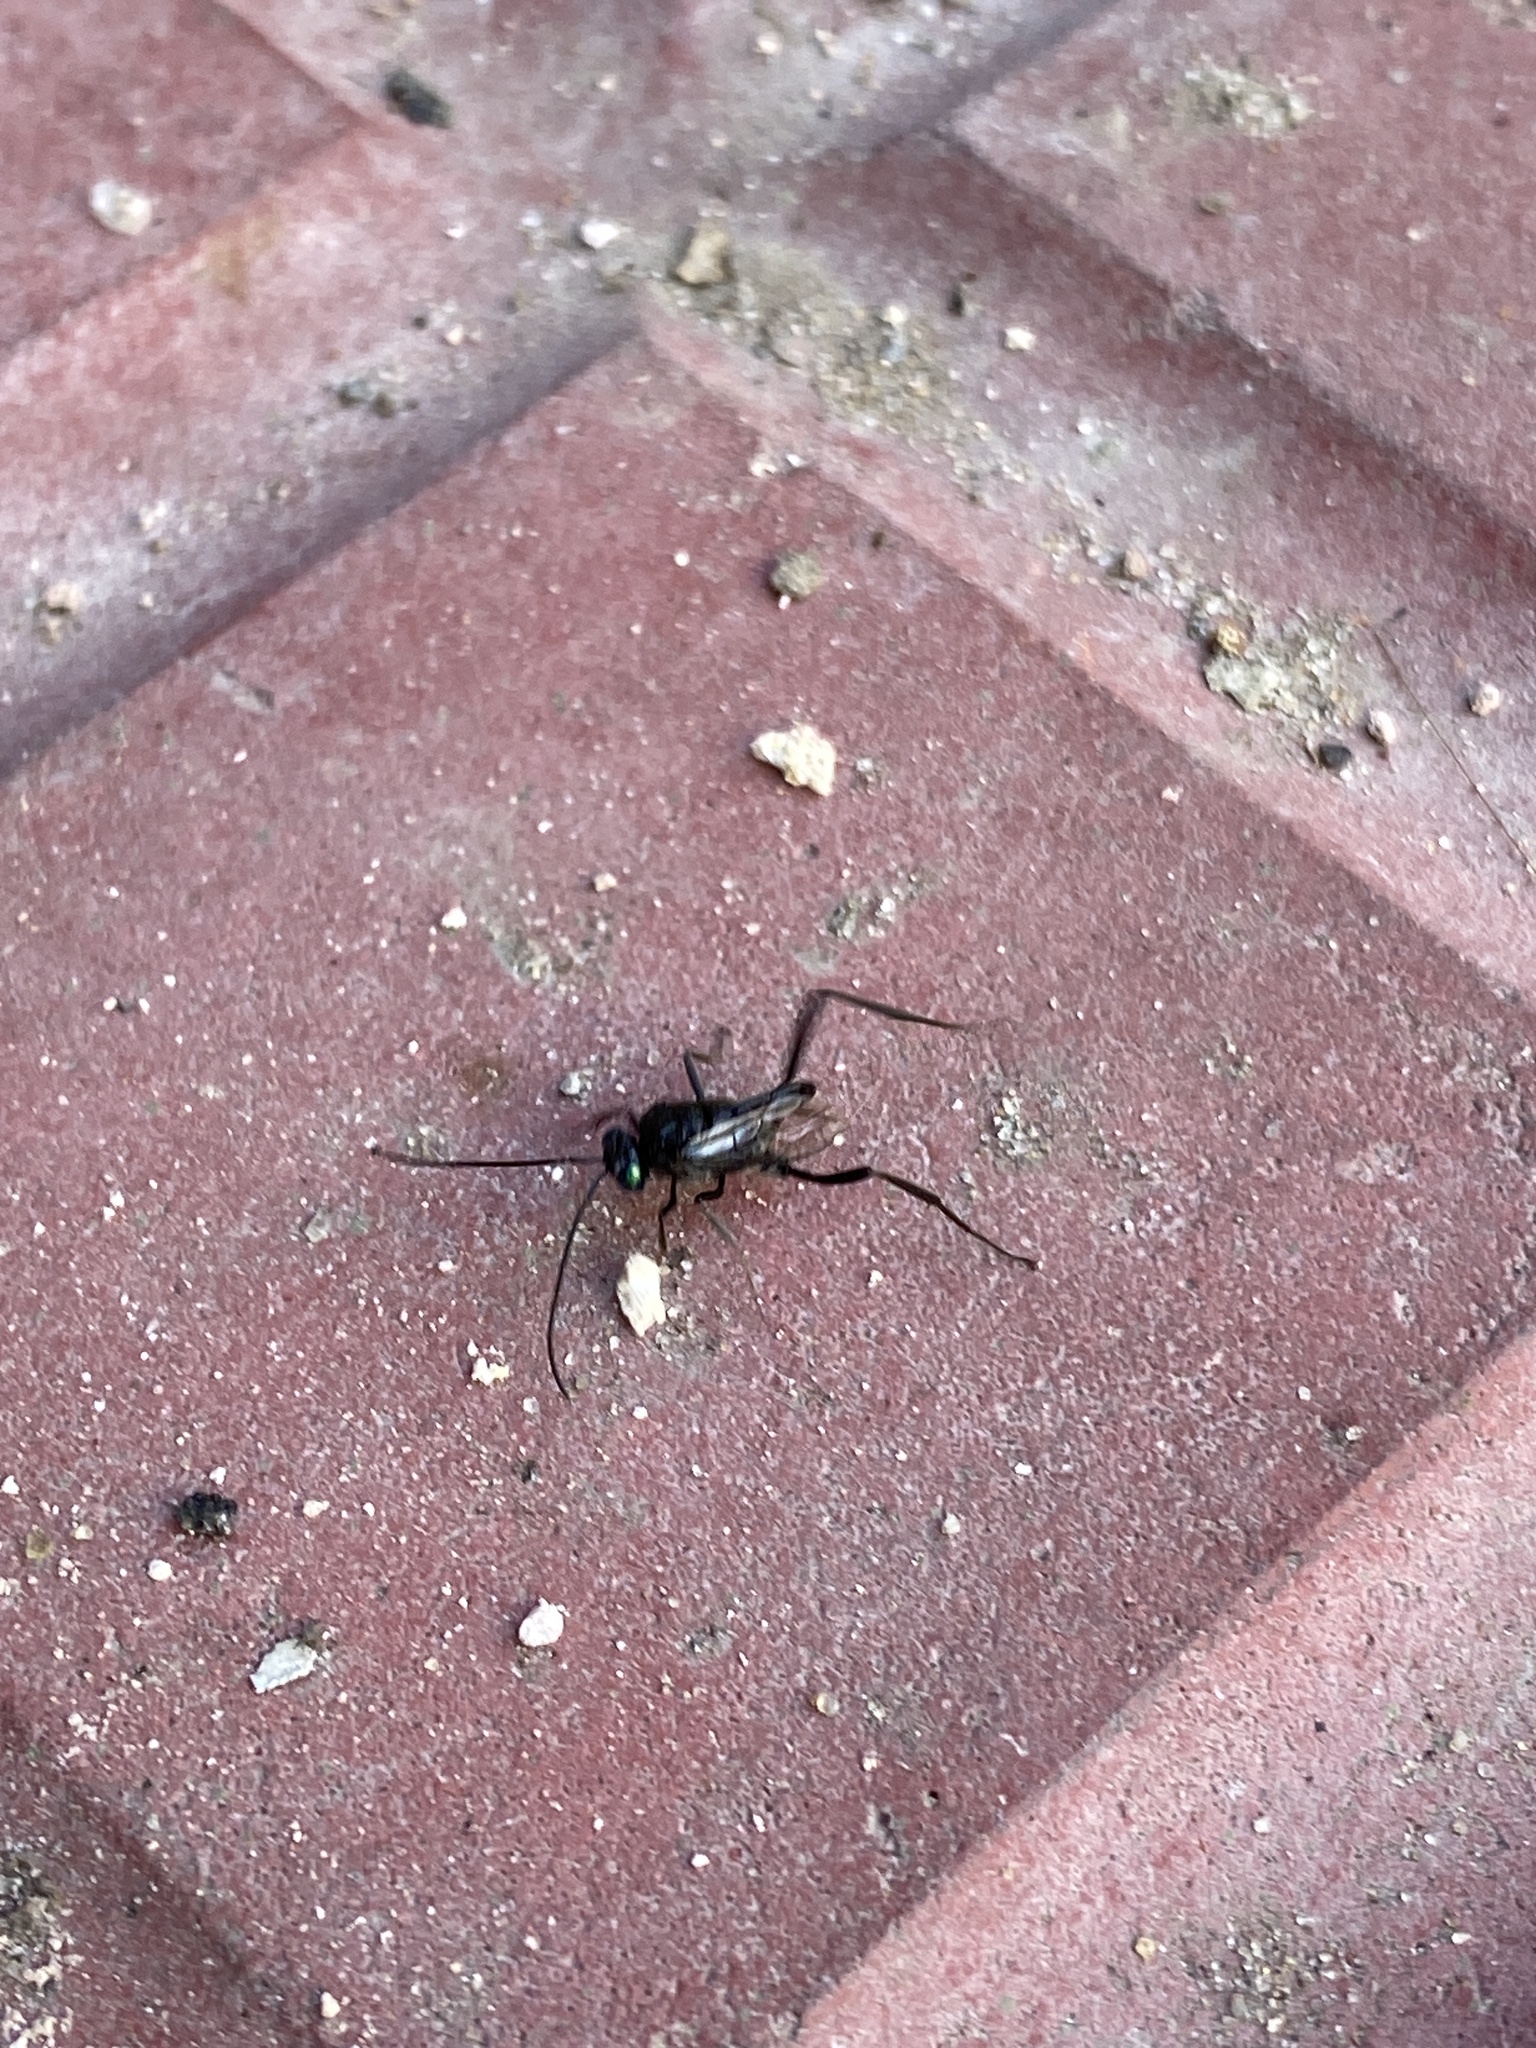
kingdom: Animalia
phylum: Arthropoda
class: Insecta
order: Hymenoptera
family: Evaniidae
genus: Evania
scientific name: Evania appendigaster
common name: Ensign wasp
